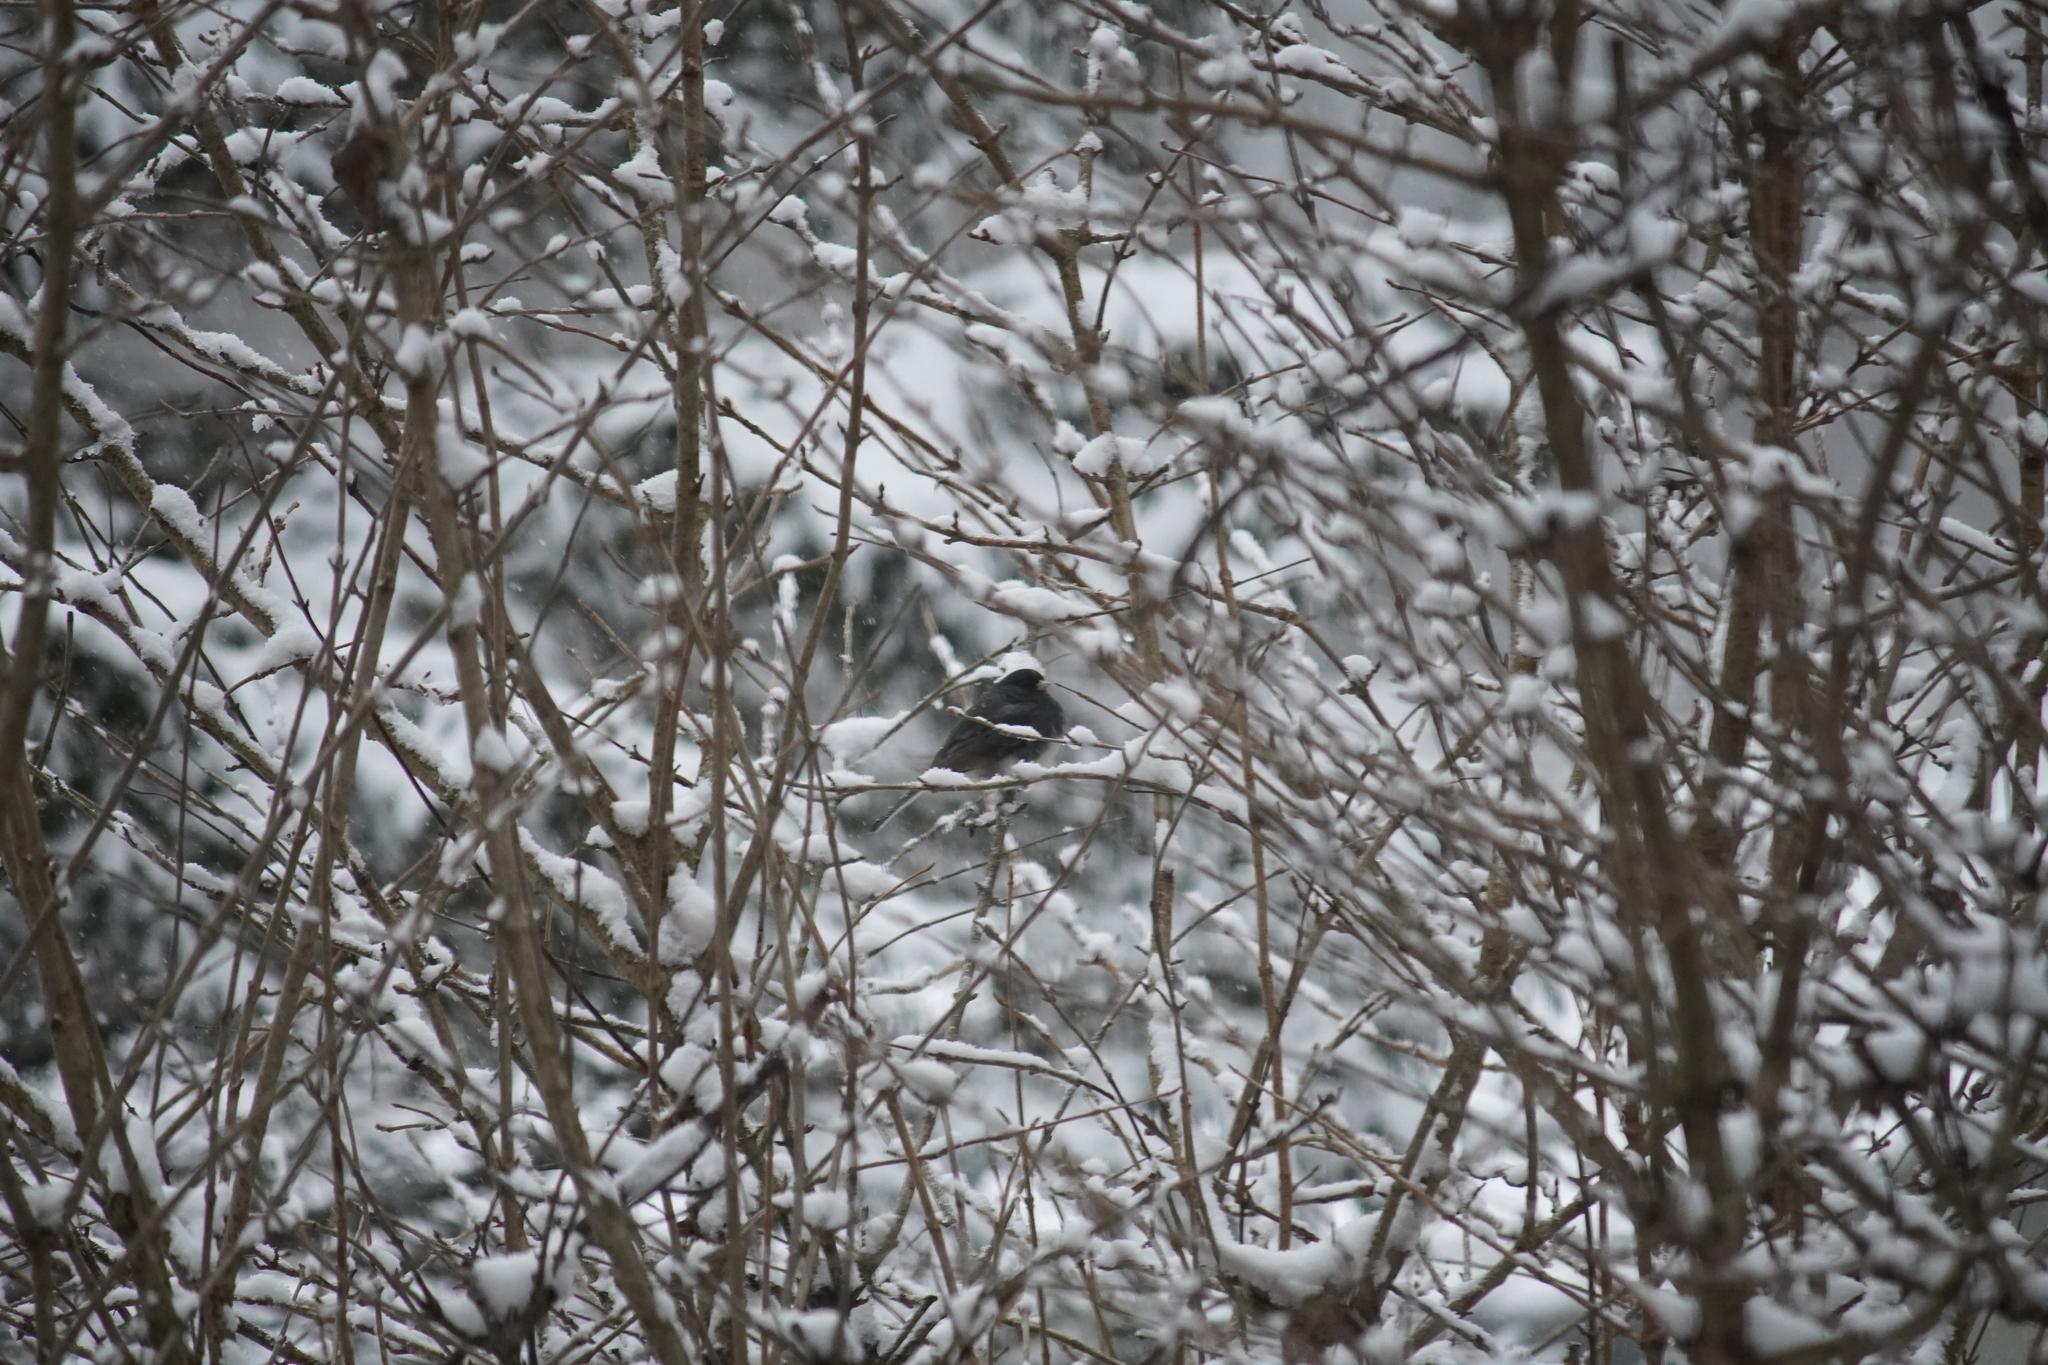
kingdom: Animalia
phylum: Chordata
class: Aves
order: Passeriformes
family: Passerellidae
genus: Junco
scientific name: Junco hyemalis
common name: Dark-eyed junco
